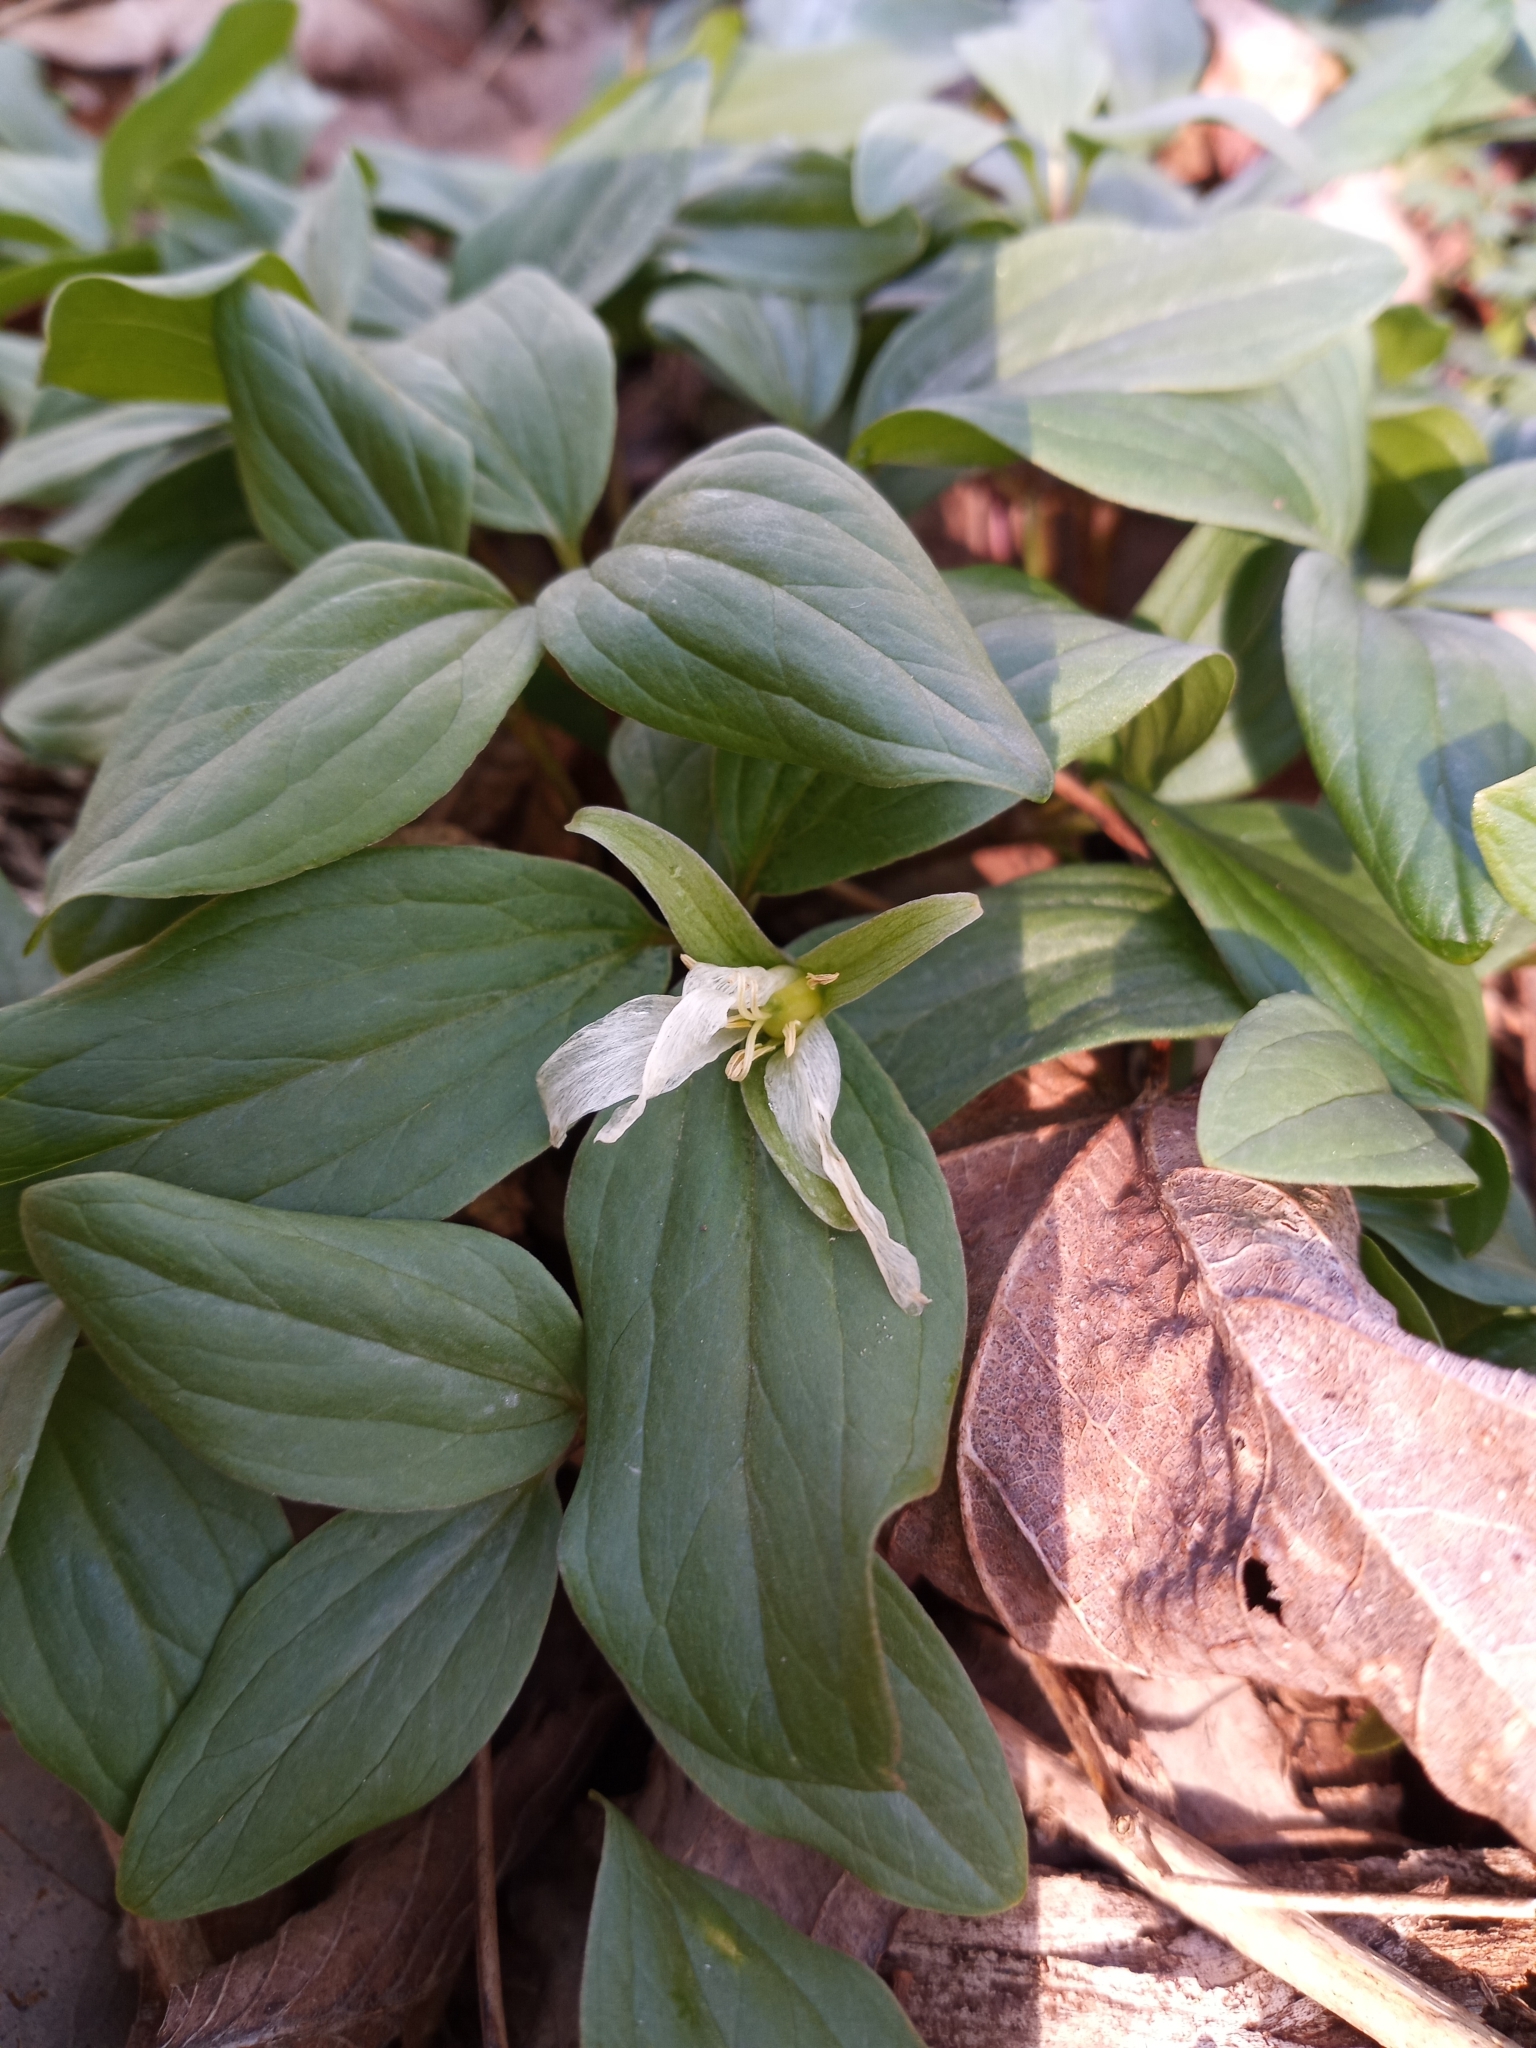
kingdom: Plantae
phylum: Tracheophyta
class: Liliopsida
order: Liliales
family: Melanthiaceae
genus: Trillium
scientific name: Trillium nivale
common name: Dwarf white trillium
